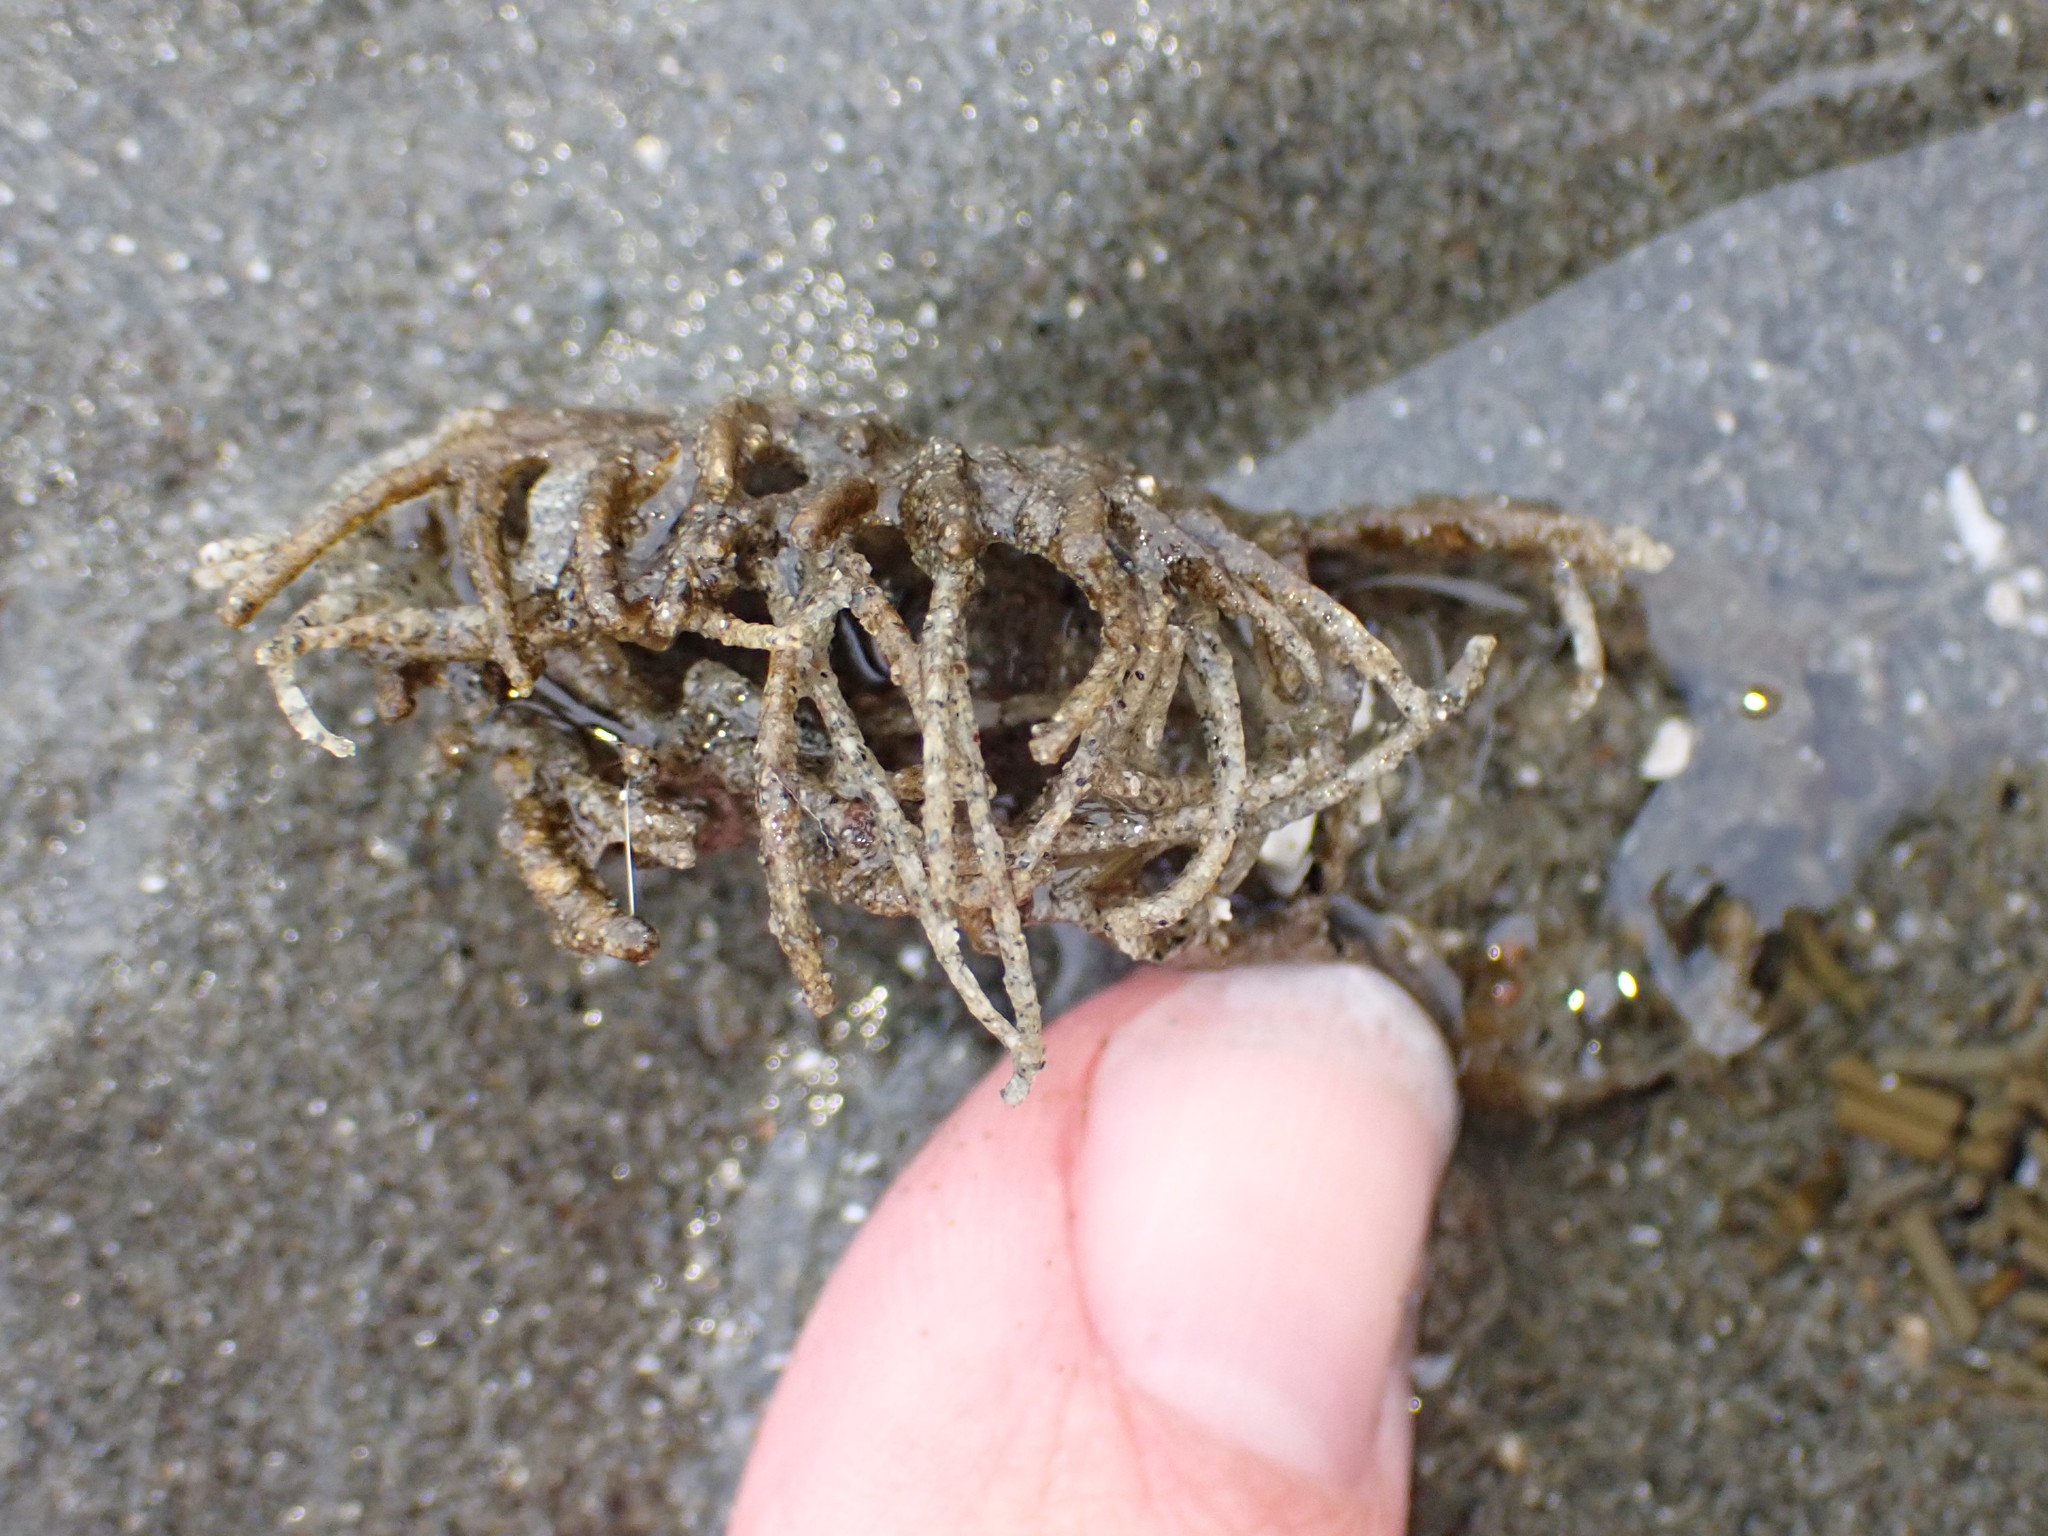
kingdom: Animalia
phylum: Annelida
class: Polychaeta
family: Terebellidae
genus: Pista
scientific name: Pista pacifica
